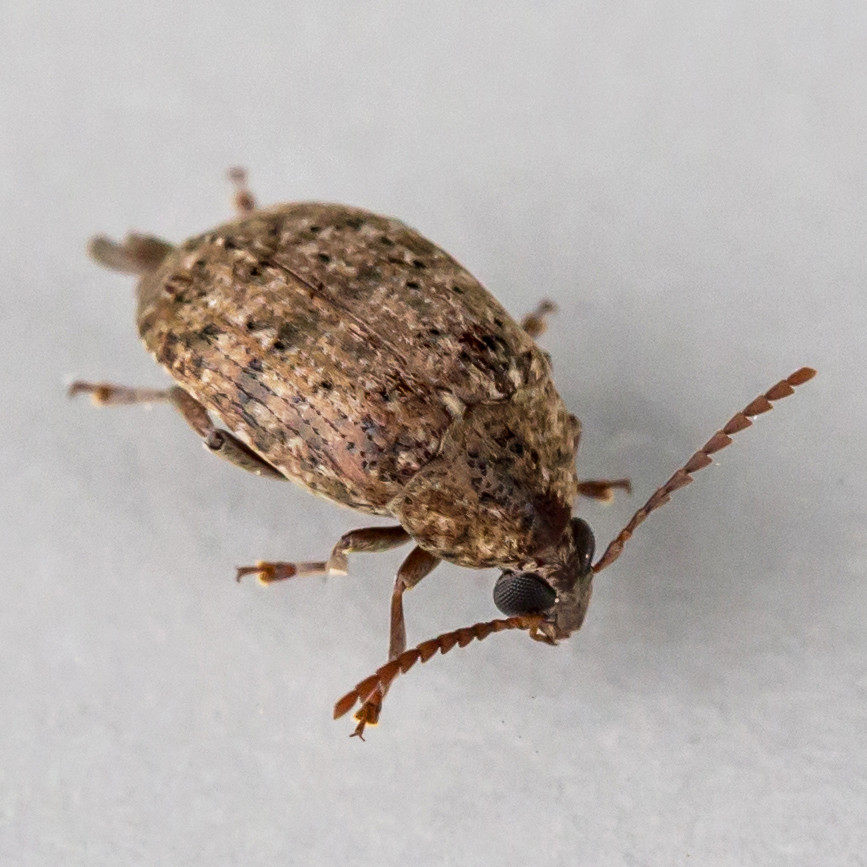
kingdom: Animalia
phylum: Arthropoda
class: Insecta
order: Coleoptera
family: Chrysomelidae
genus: Amblycerus
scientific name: Amblycerus robiniae
